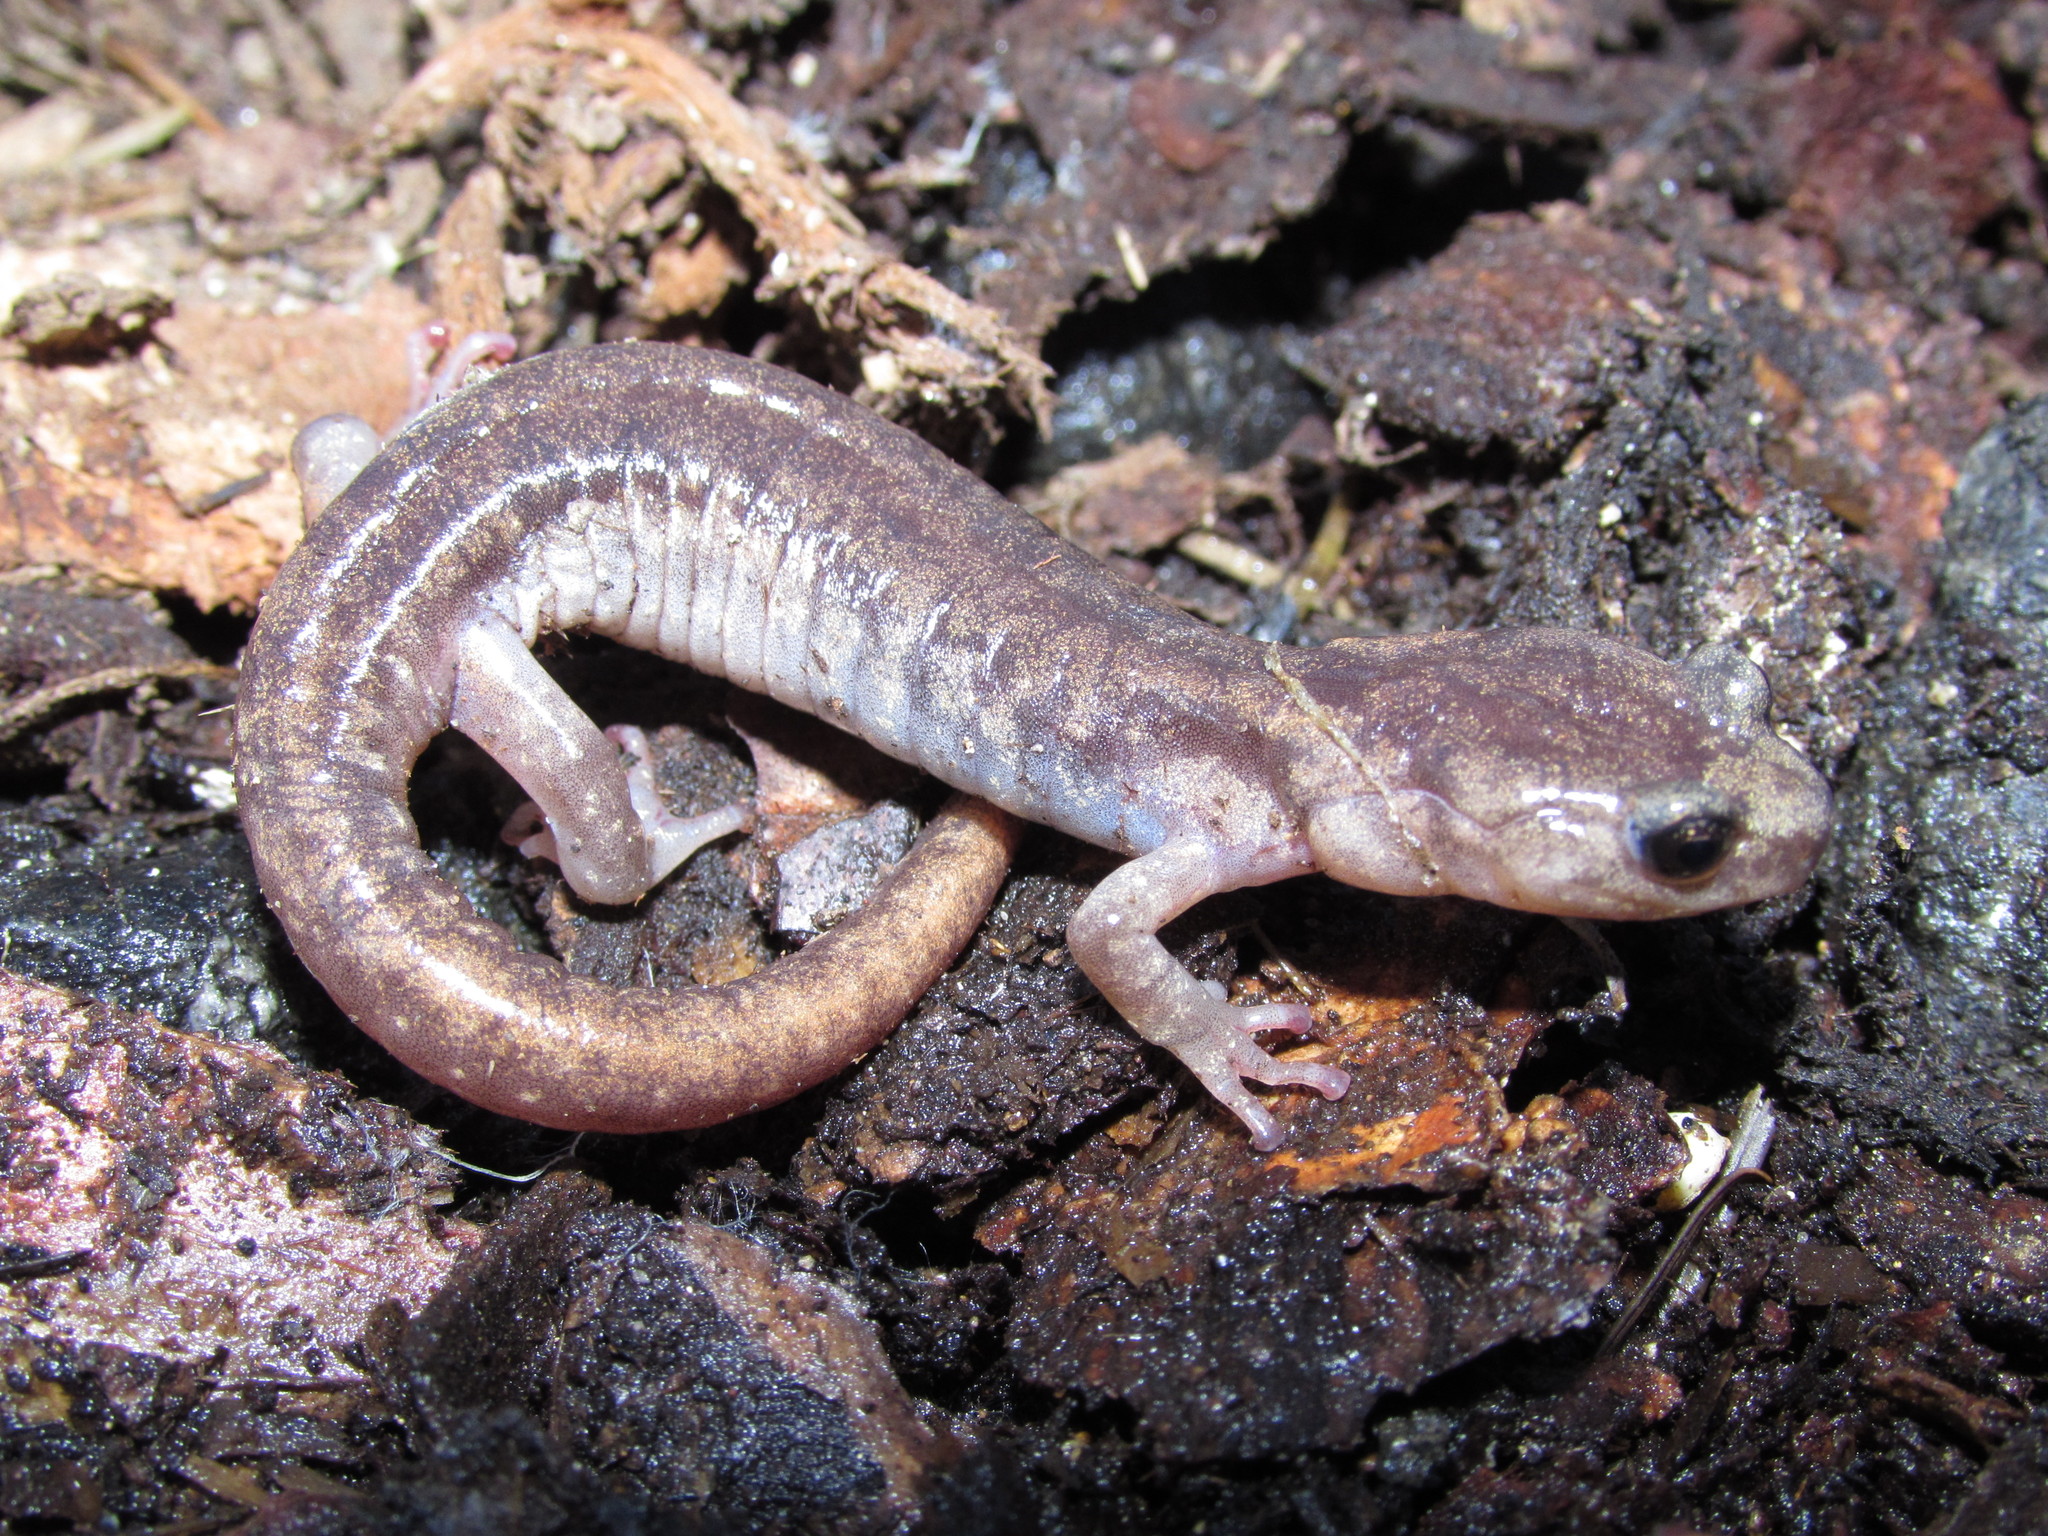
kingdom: Animalia
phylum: Chordata
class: Amphibia
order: Caudata
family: Plethodontidae
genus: Aneides
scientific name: Aneides ferreus
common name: Clouded salamander
